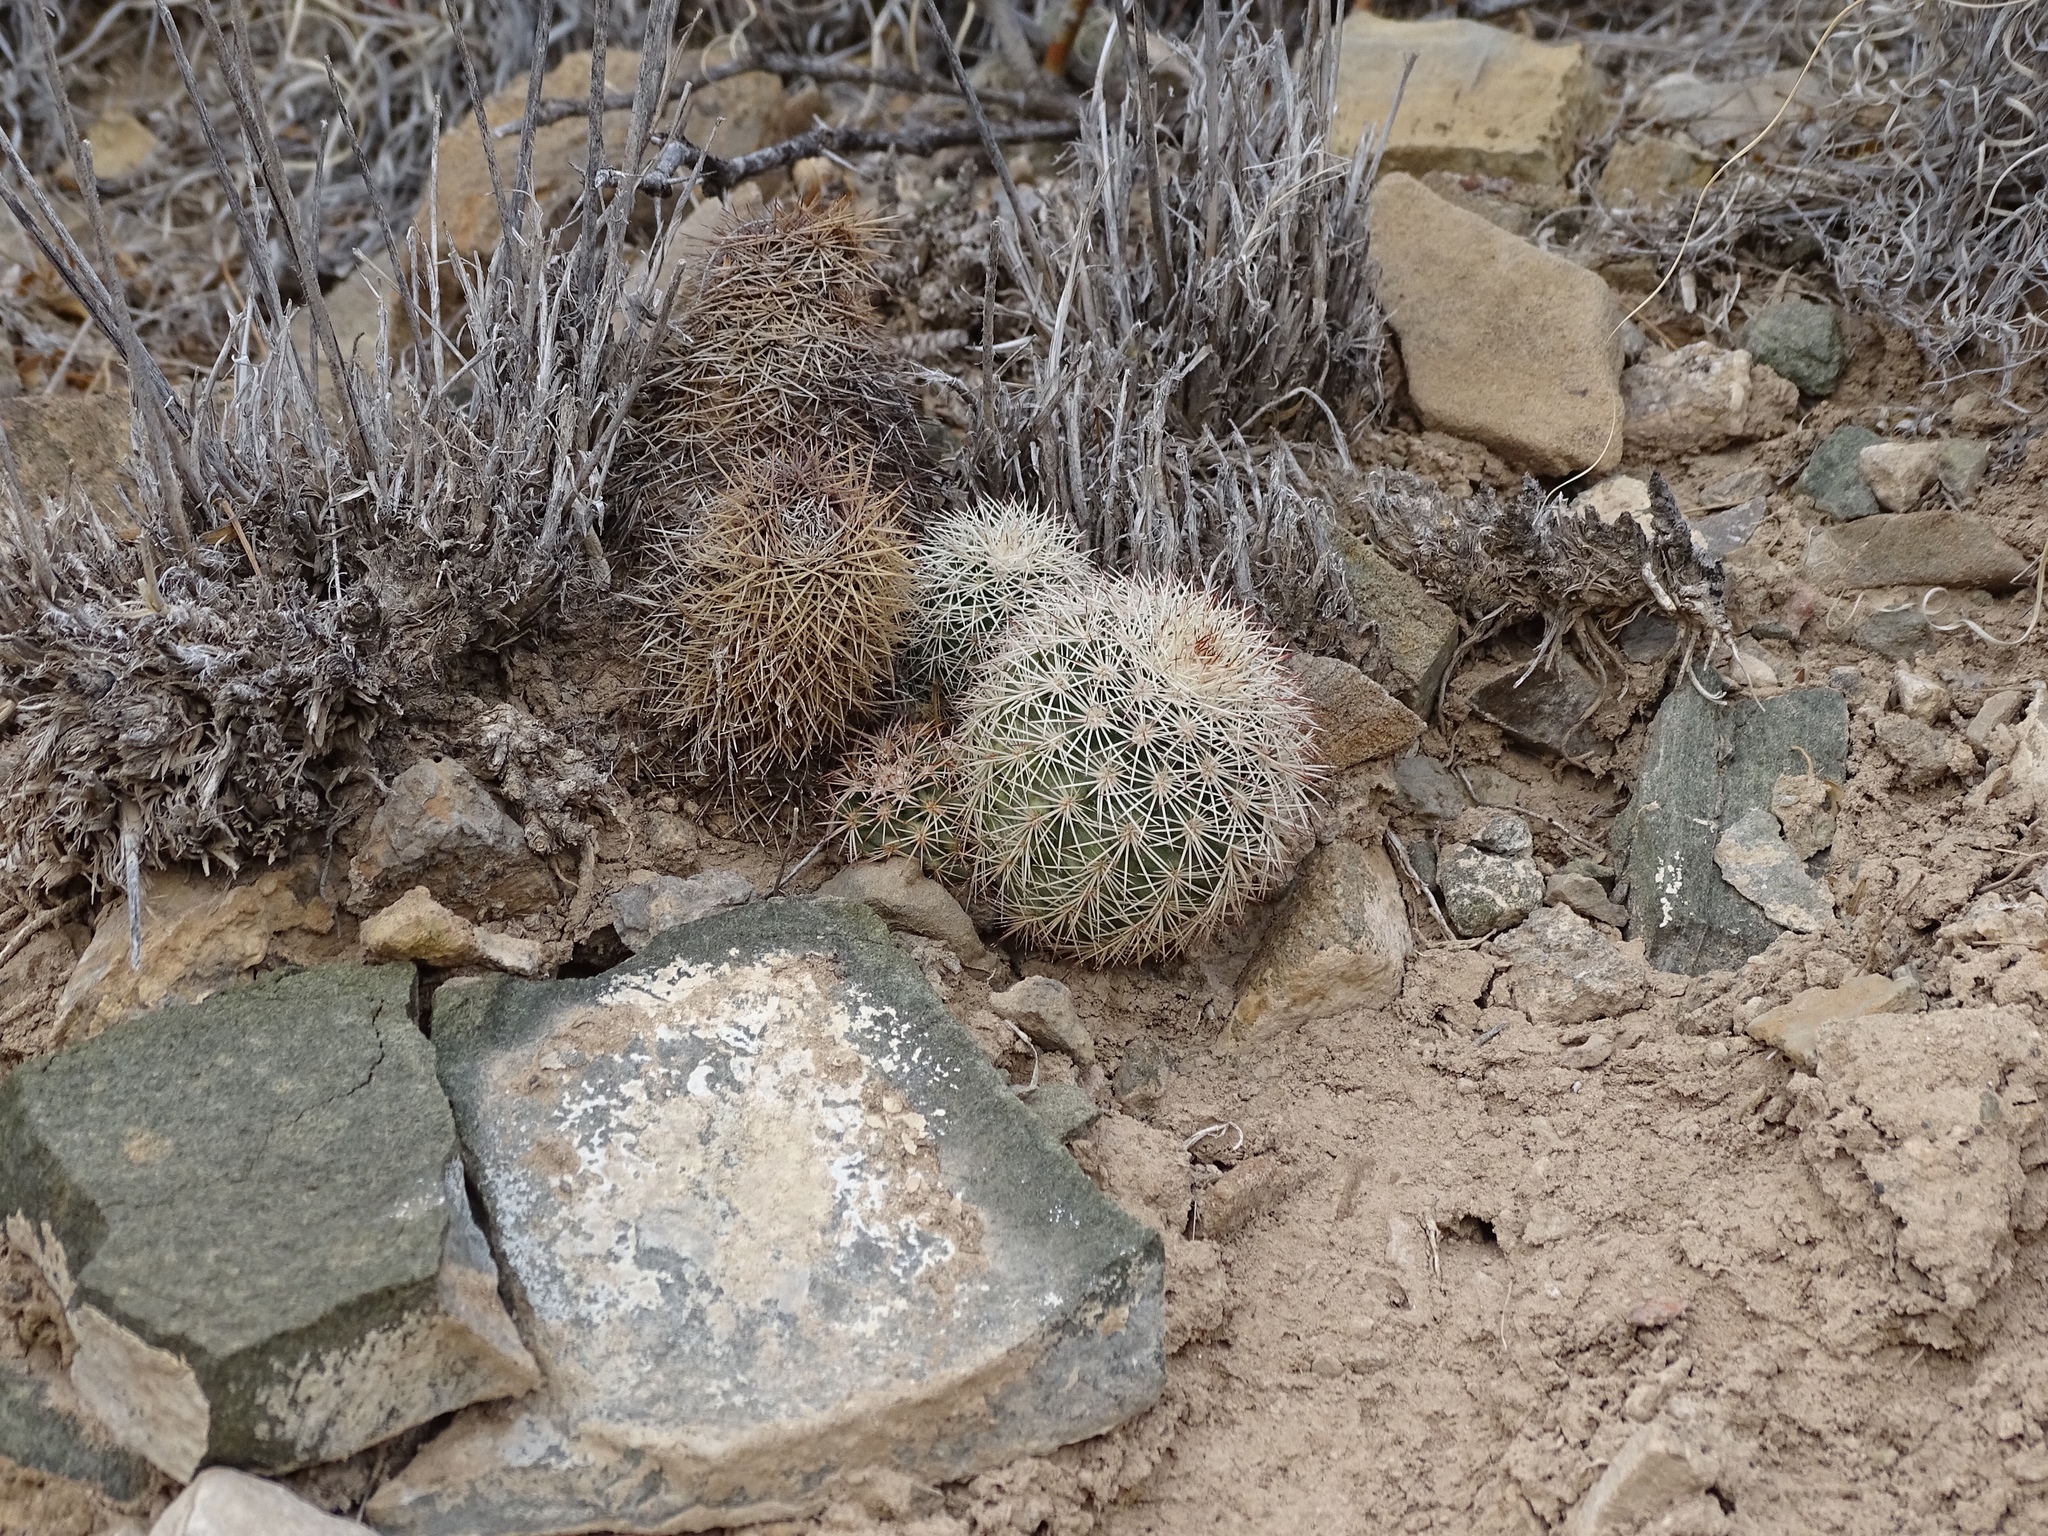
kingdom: Plantae
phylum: Tracheophyta
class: Magnoliopsida
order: Caryophyllales
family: Cactaceae
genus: Echinocereus
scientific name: Echinocereus dasyacanthus
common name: Spiny hedgehog cactus
